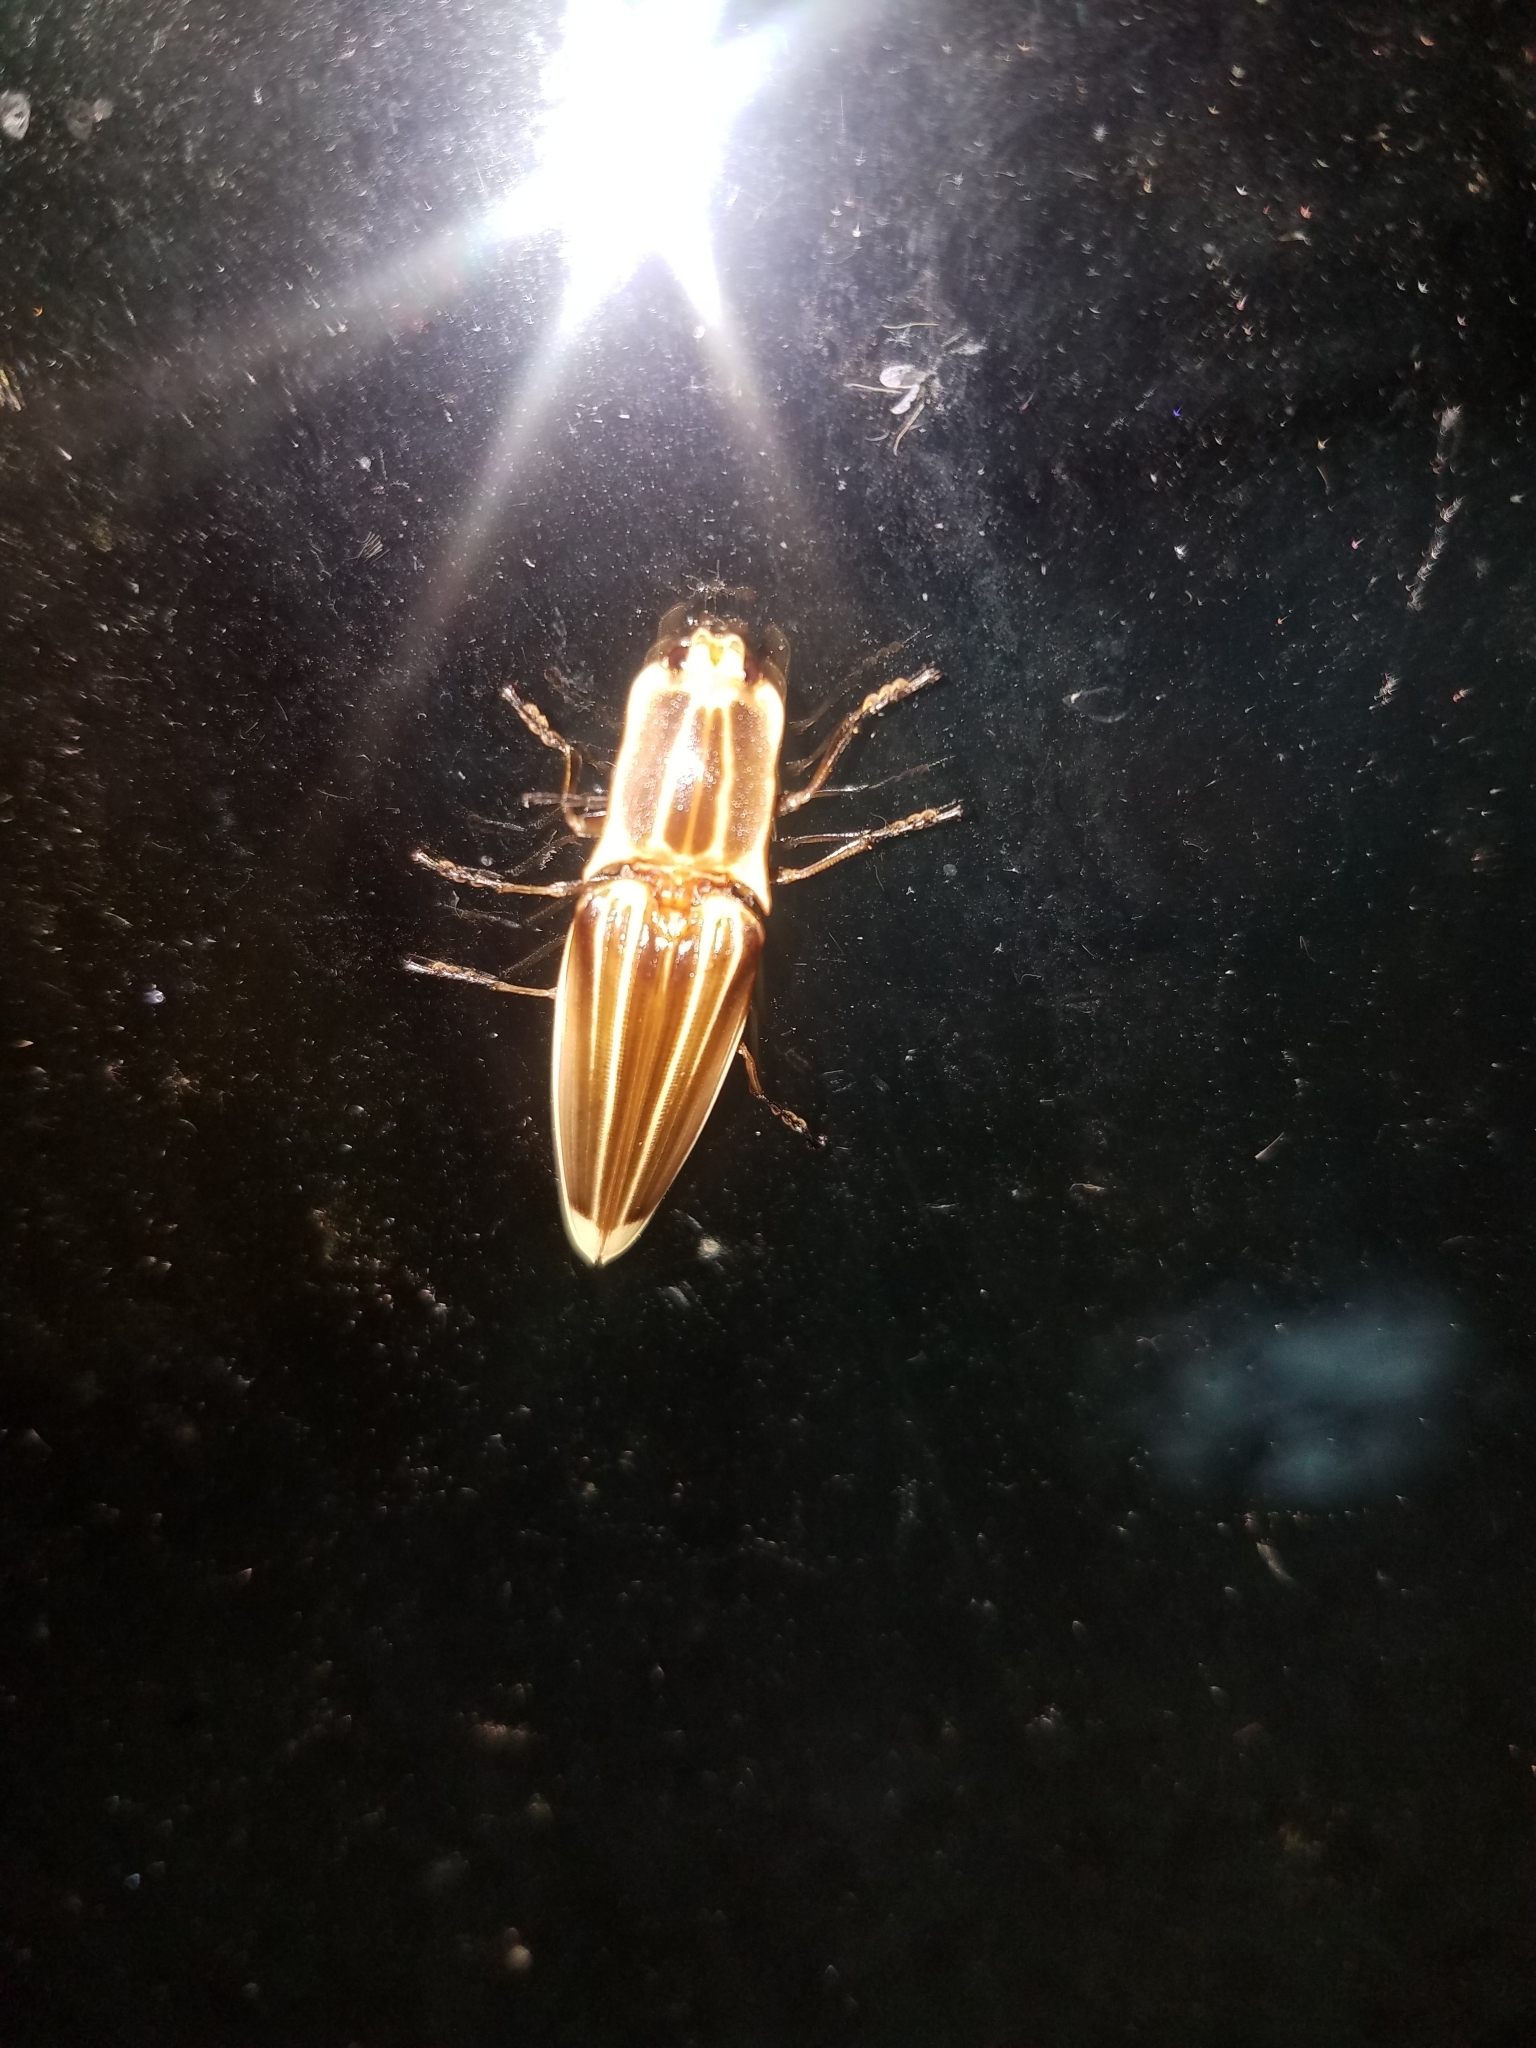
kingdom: Animalia
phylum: Arthropoda
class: Insecta
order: Coleoptera
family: Elateridae
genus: Semiotus
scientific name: Semiotus ligneus
